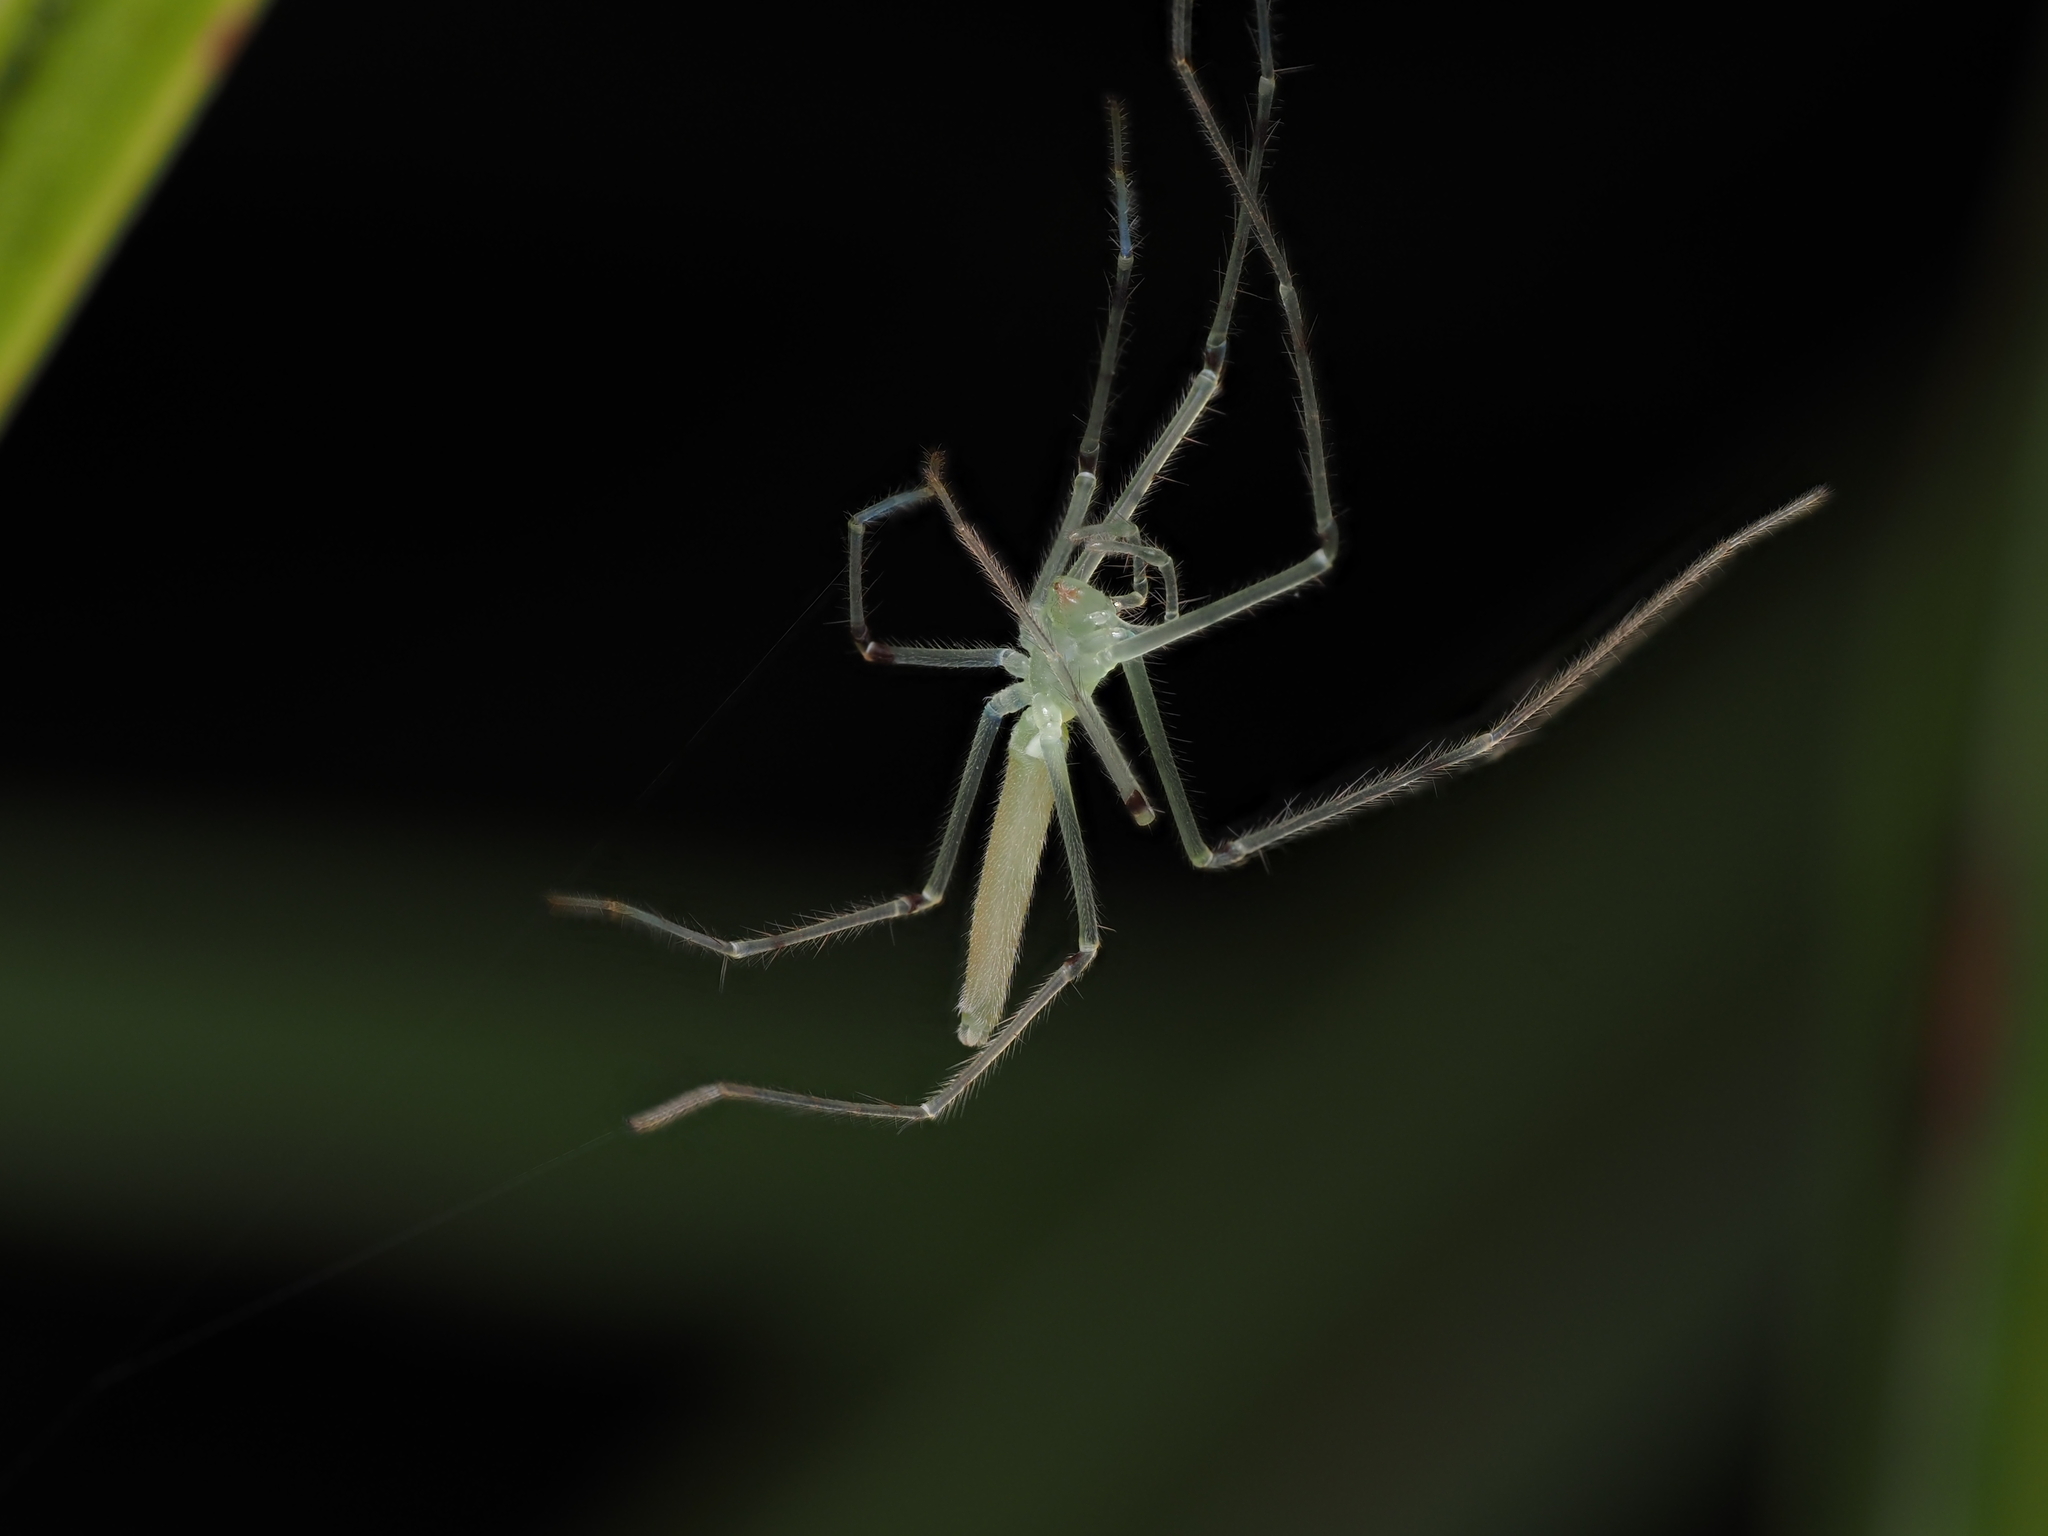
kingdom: Animalia
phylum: Arthropoda
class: Arachnida
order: Araneae
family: Desidae
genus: Ischalea
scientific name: Ischalea spinipes
